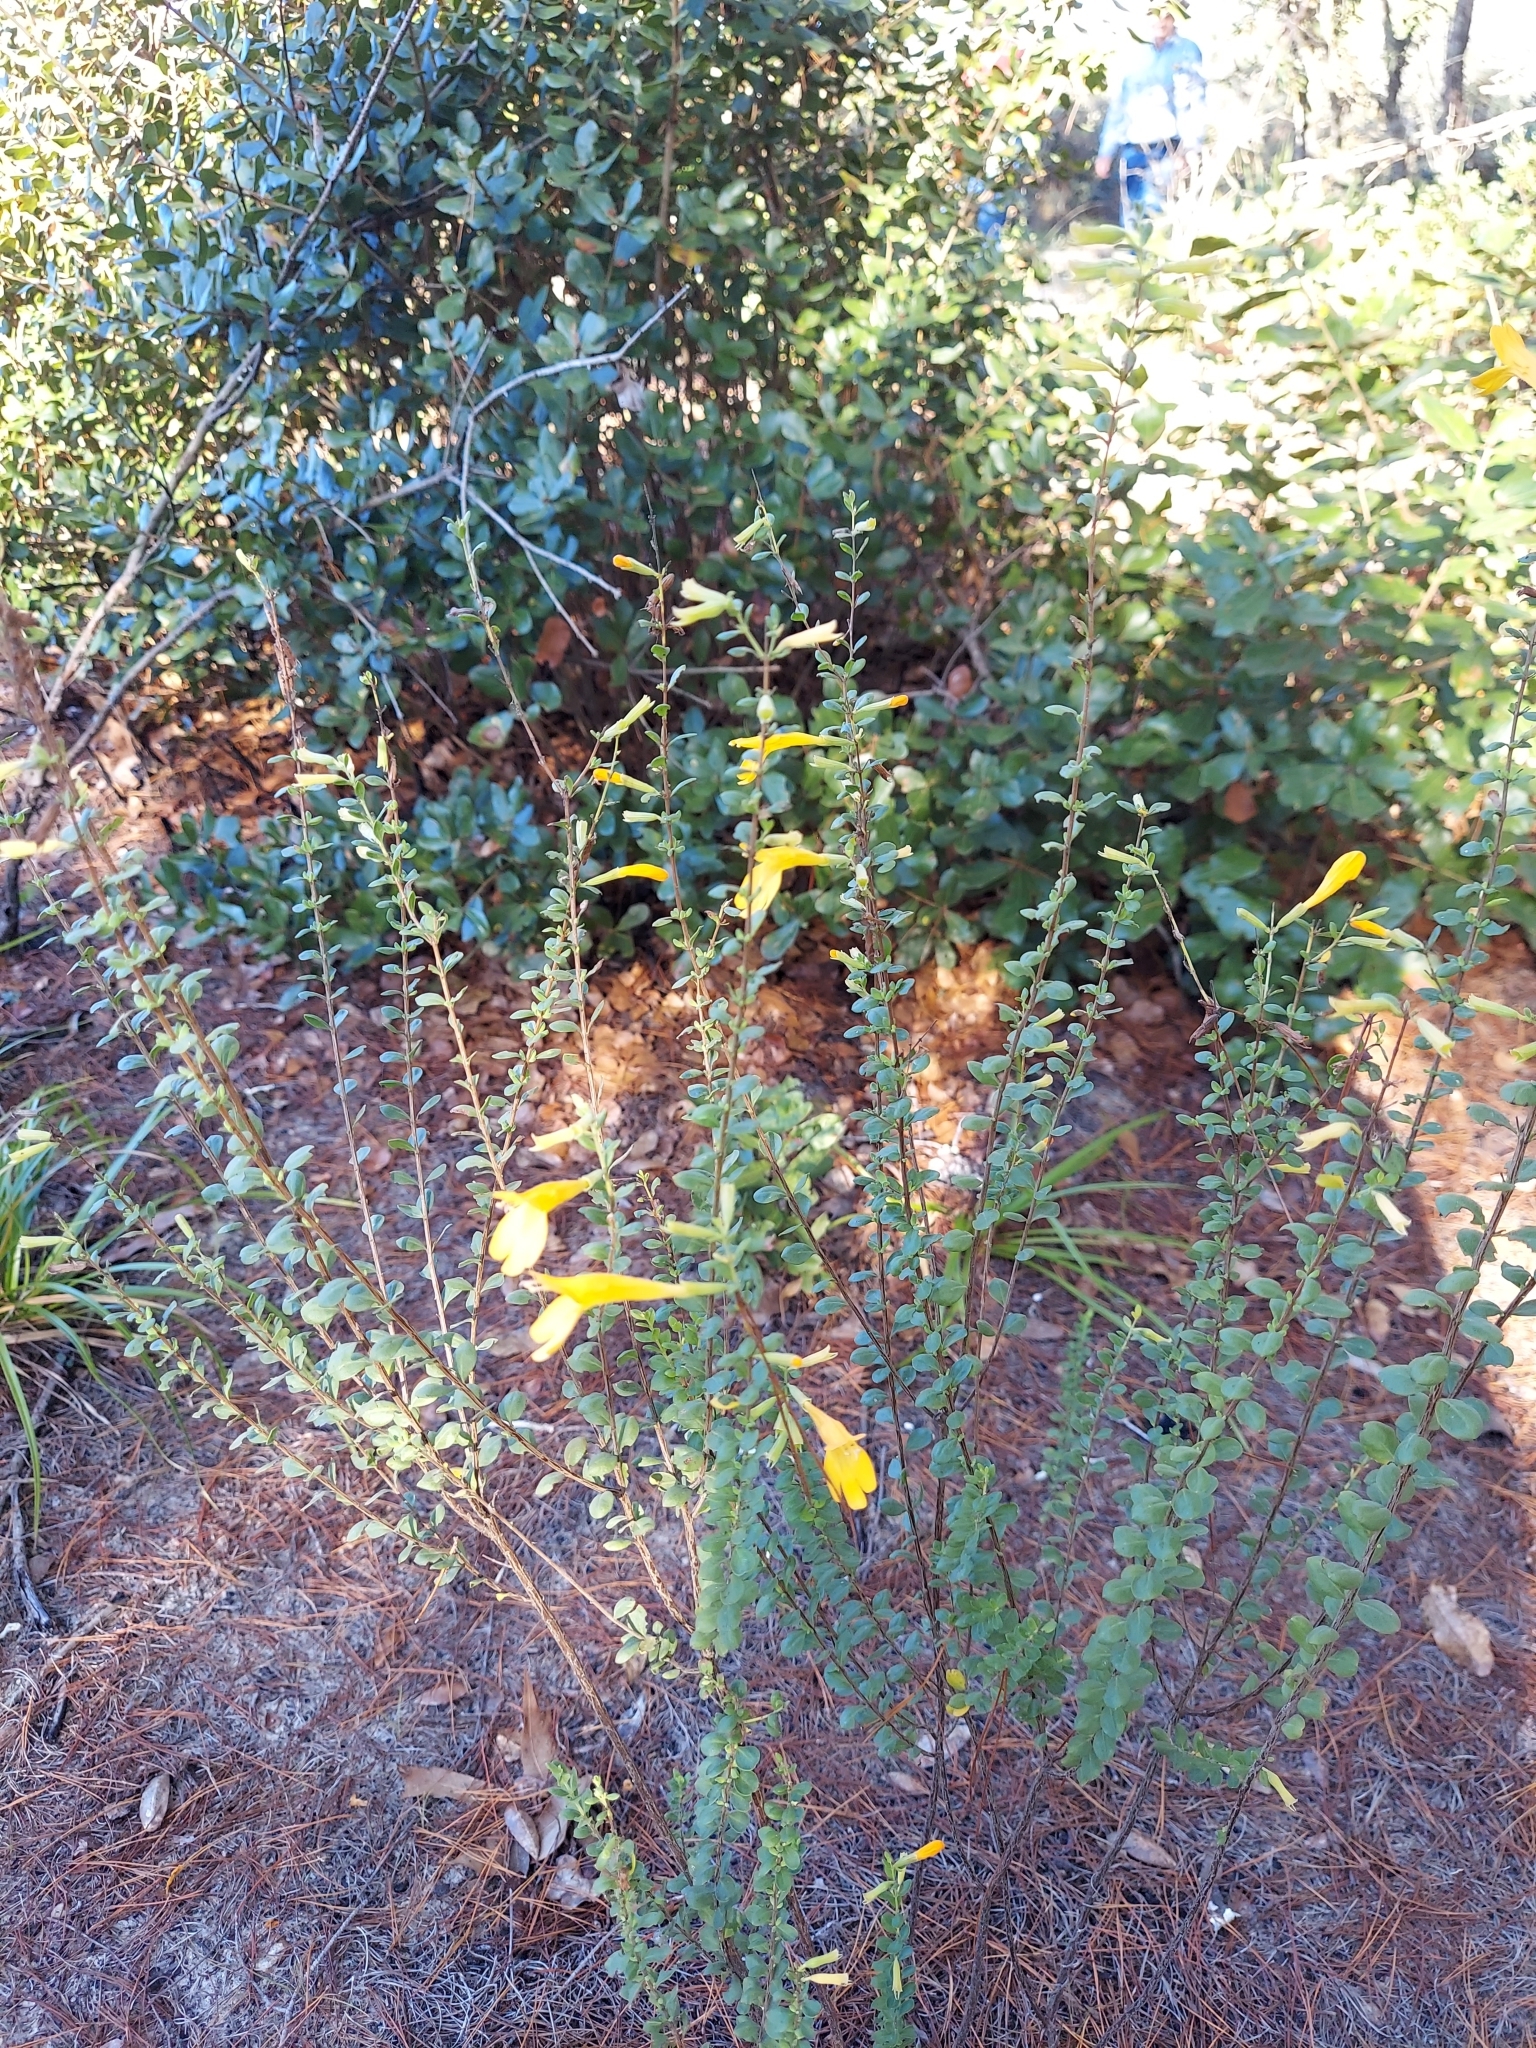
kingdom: Plantae
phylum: Tracheophyta
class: Magnoliopsida
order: Lamiales
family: Lamiaceae
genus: Clinopodium
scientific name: Clinopodium coccineum
